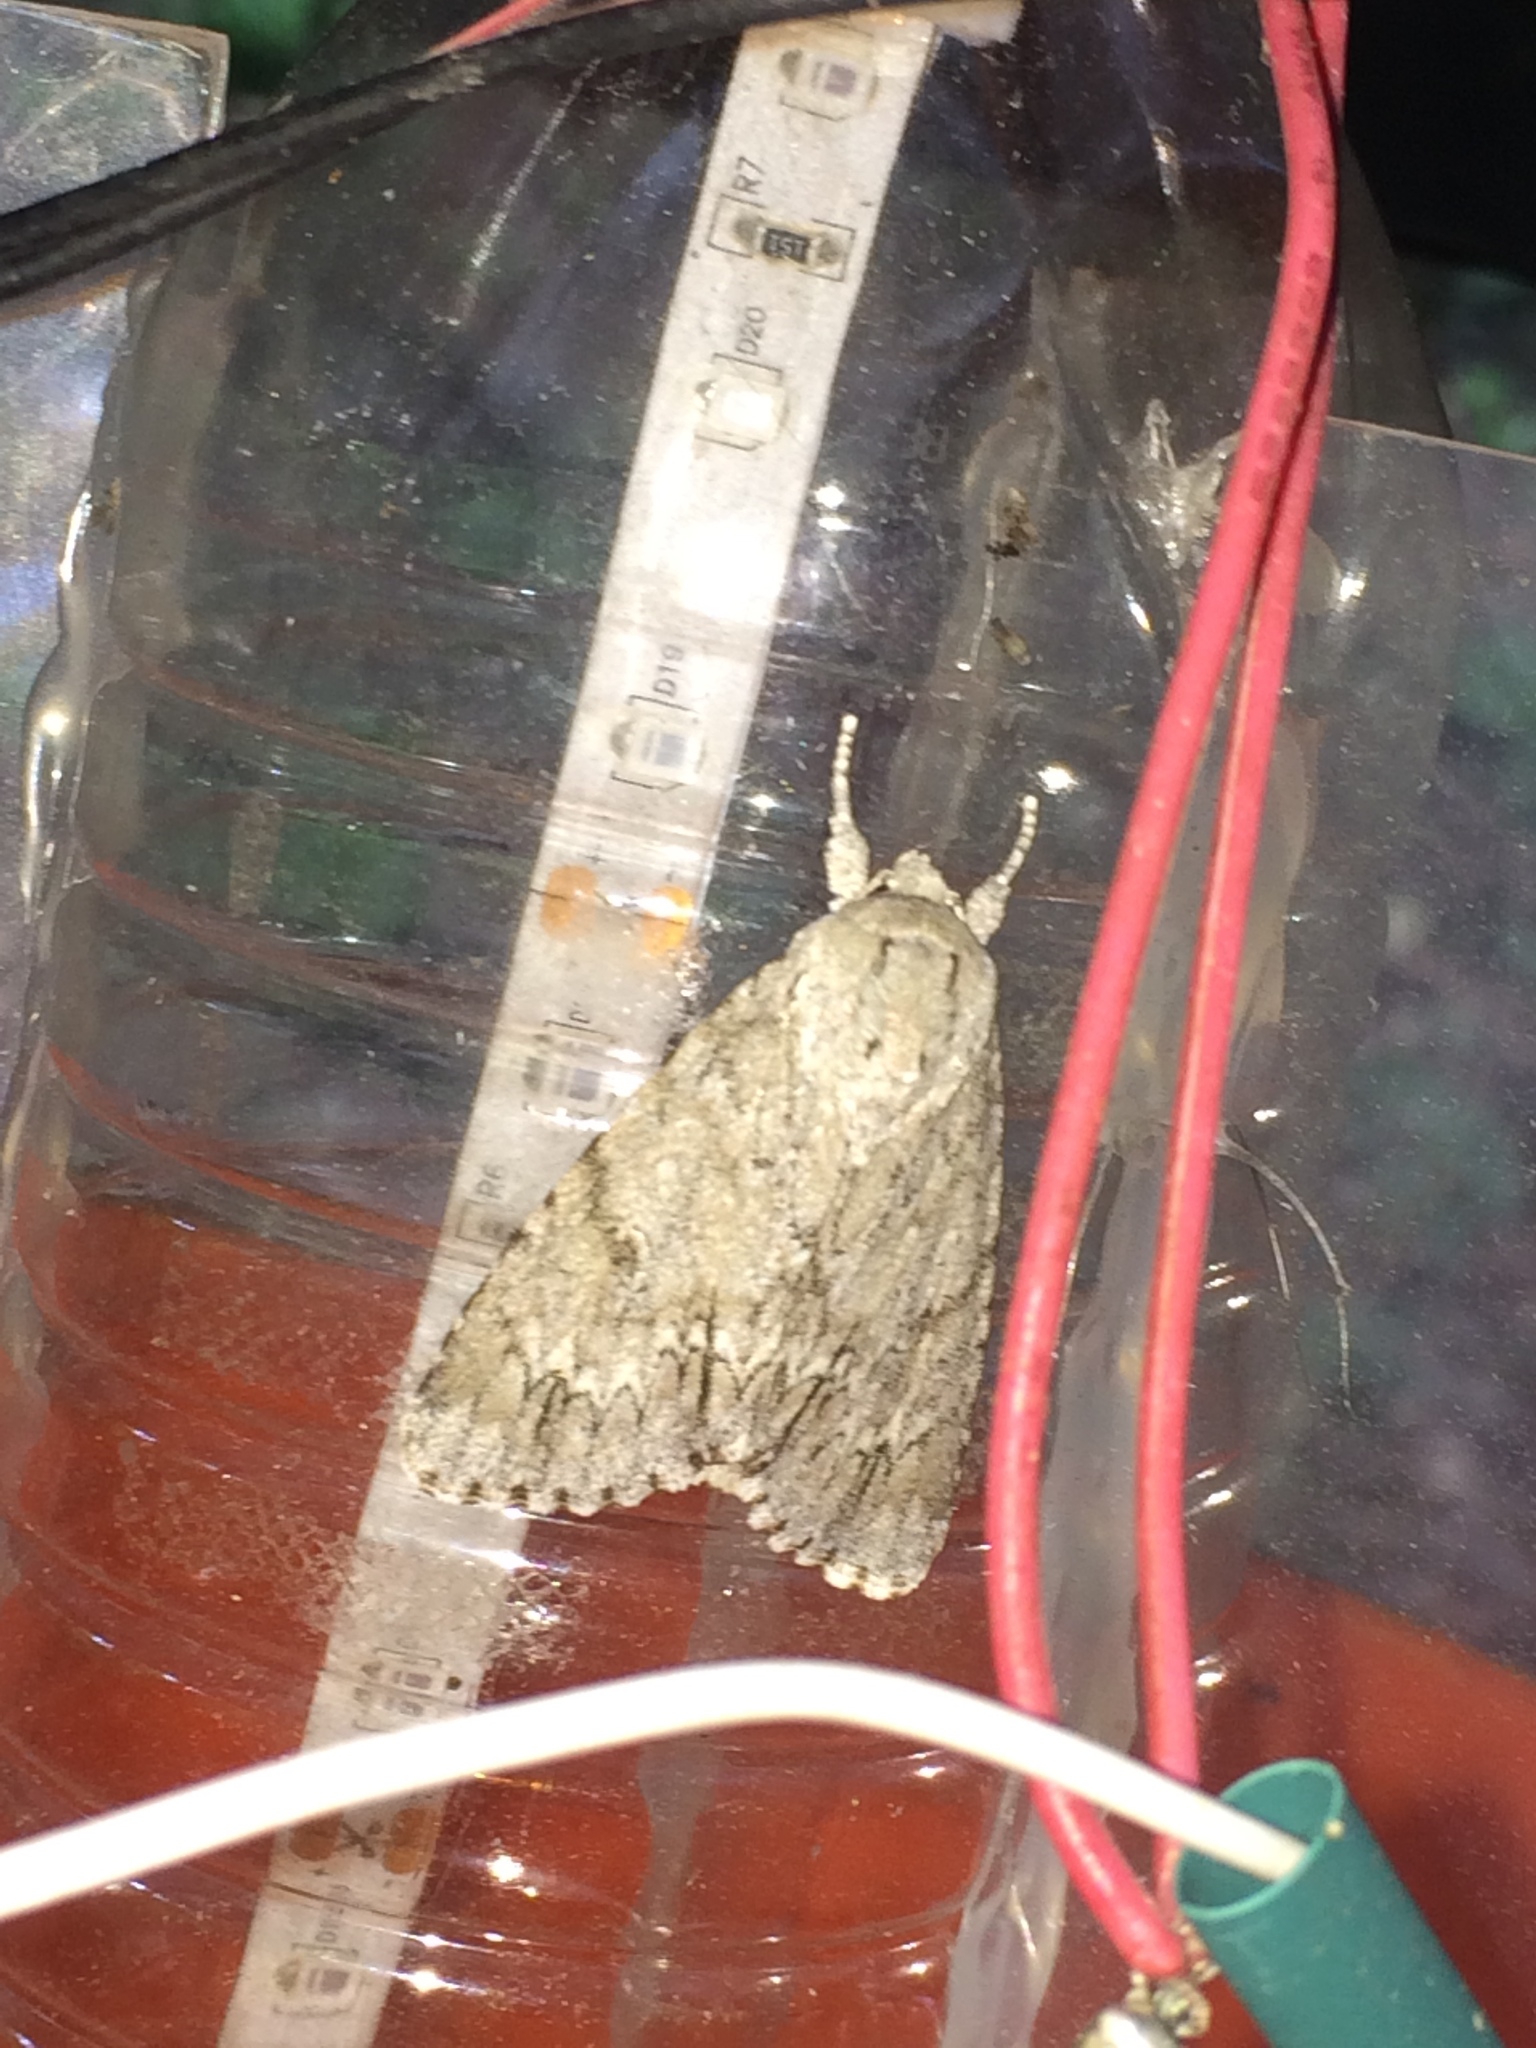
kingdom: Animalia
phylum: Arthropoda
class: Insecta
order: Lepidoptera
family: Noctuidae
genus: Acronicta
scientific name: Acronicta americana
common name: American dagger
